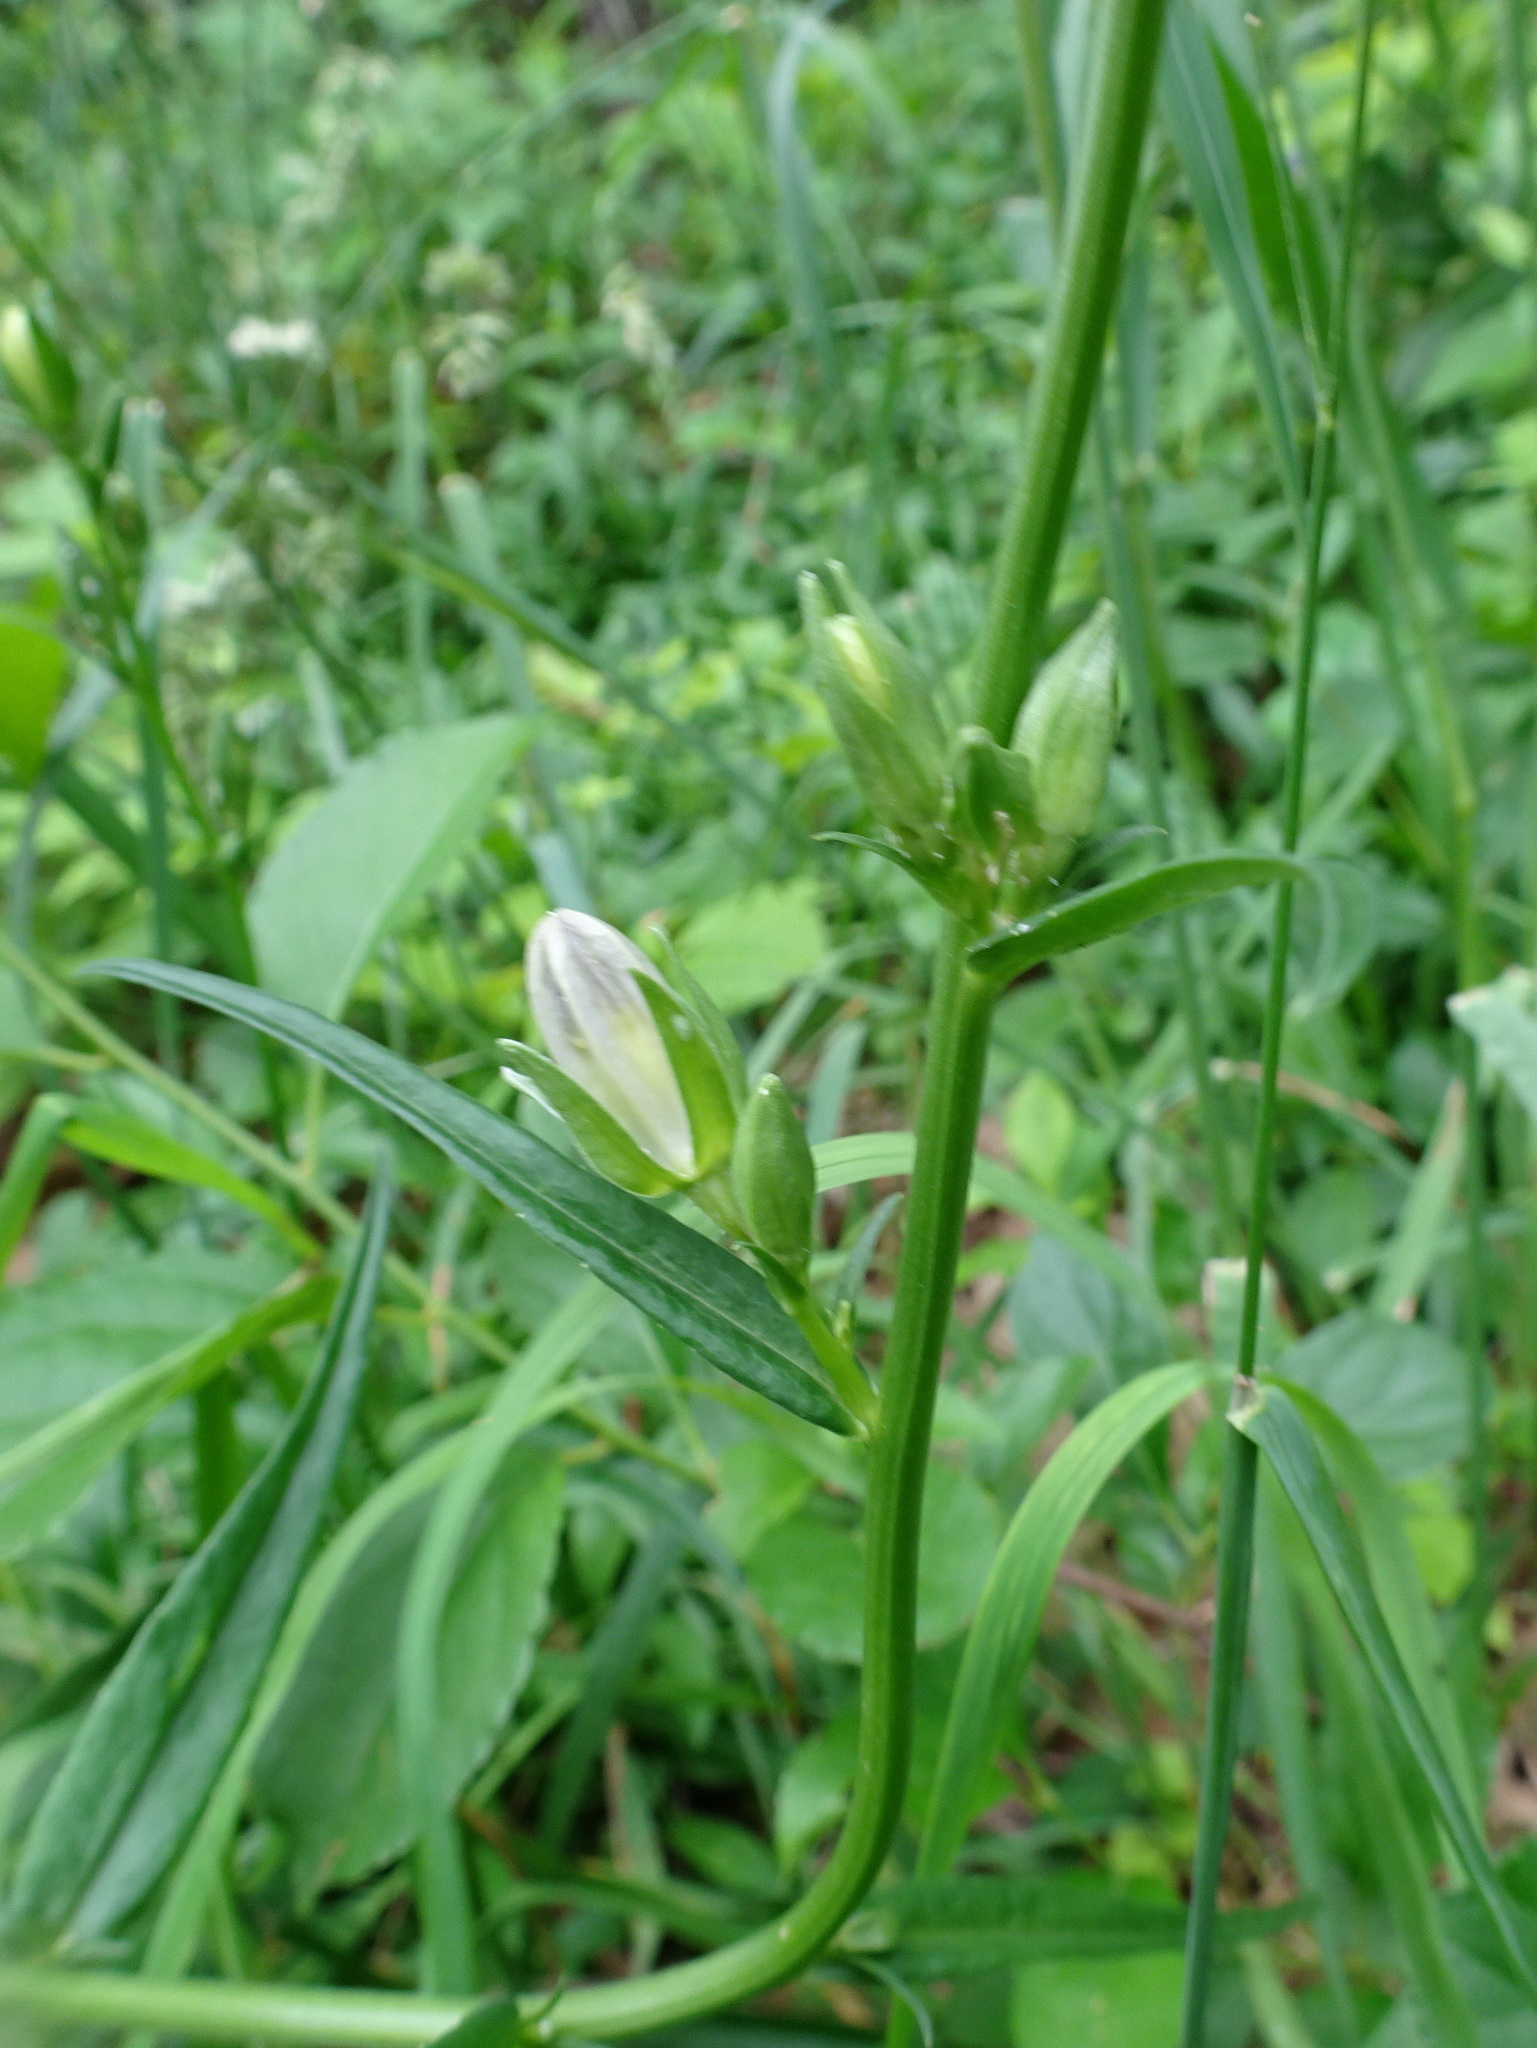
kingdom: Plantae
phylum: Tracheophyta
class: Magnoliopsida
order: Asterales
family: Campanulaceae
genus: Campanula
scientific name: Campanula persicifolia
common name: Peach-leaved bellflower
